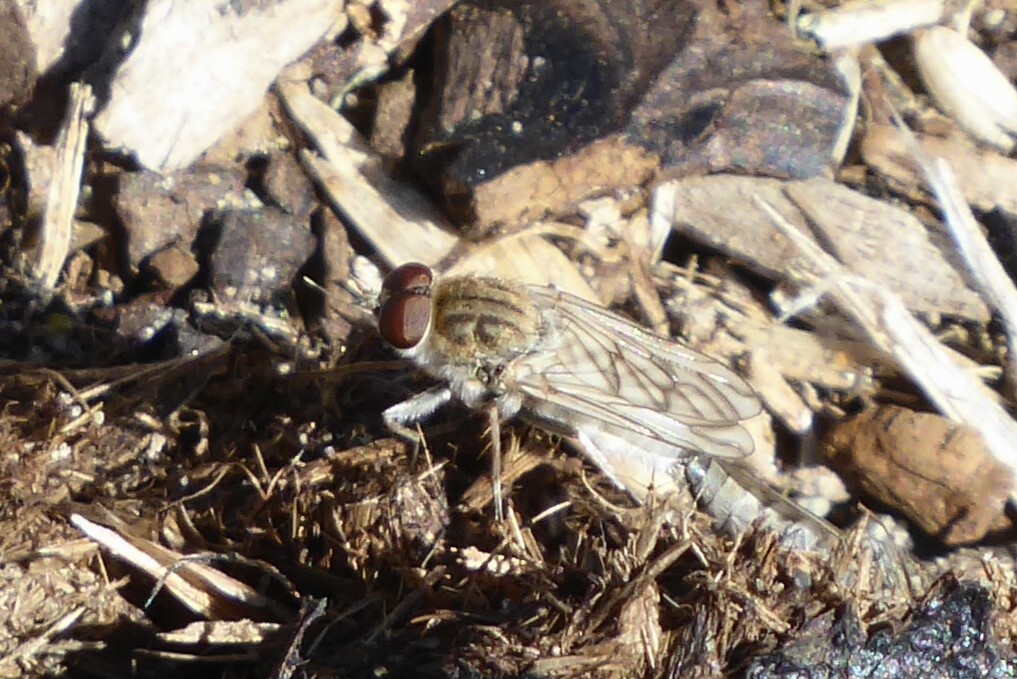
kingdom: Animalia
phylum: Arthropoda
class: Insecta
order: Diptera
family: Therevidae
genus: Anabarhynchus
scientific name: Anabarhynchus arenarius
